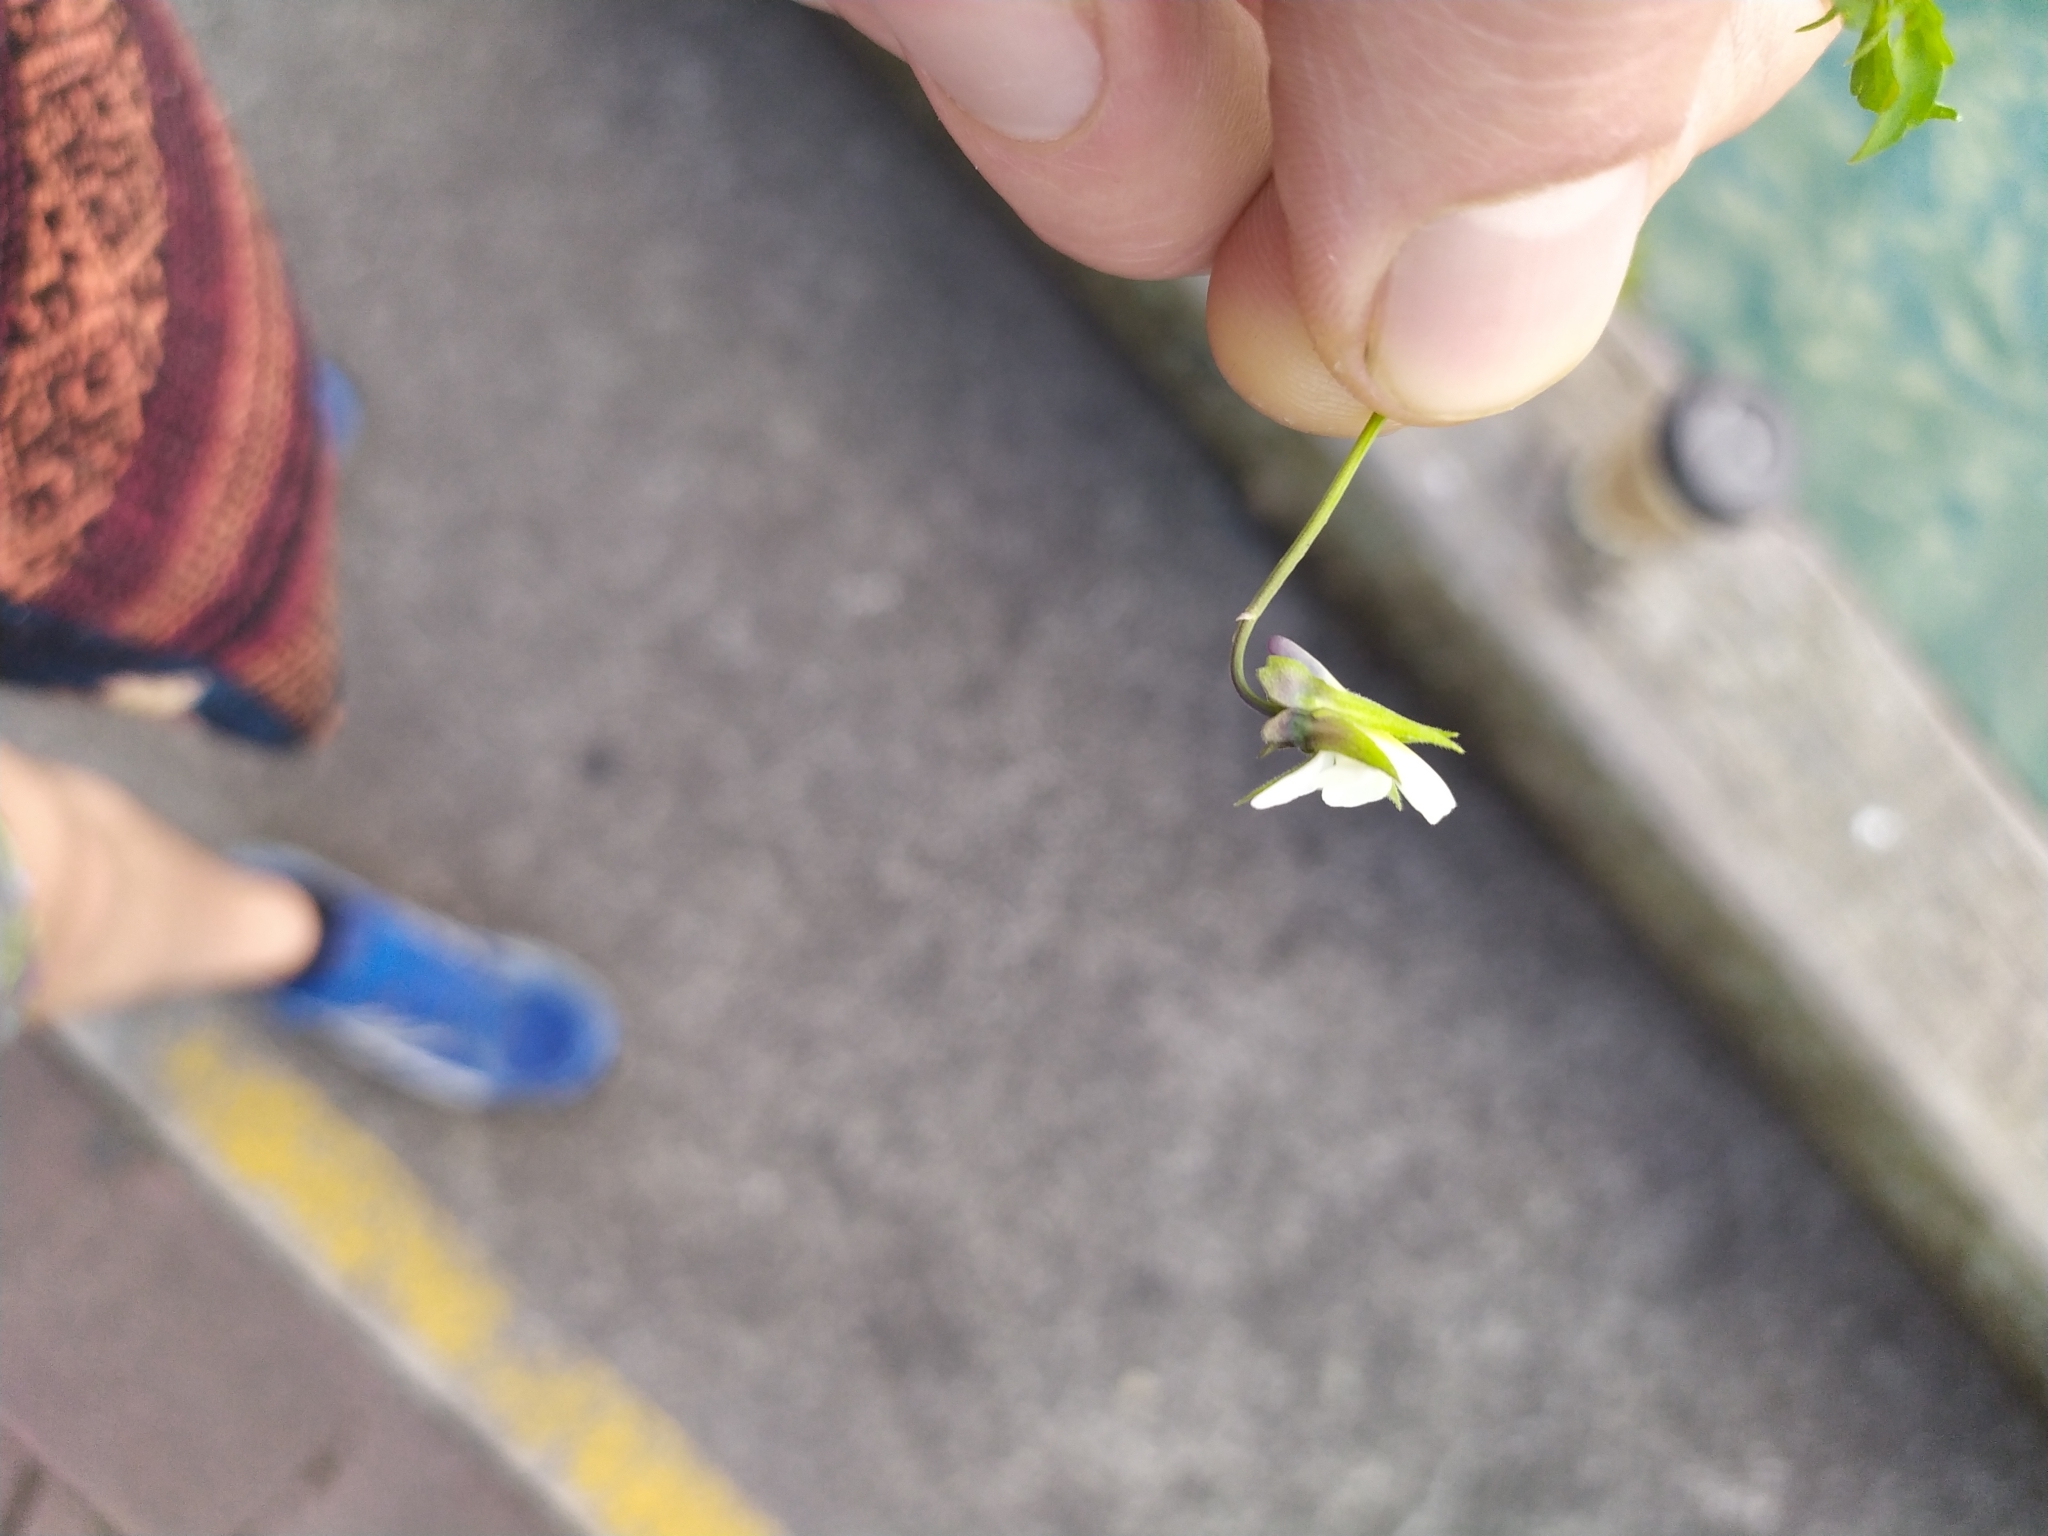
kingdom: Animalia
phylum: Mollusca
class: Gastropoda
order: Stylommatophora
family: Cochlicopidae
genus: Cochlicopa
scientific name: Cochlicopa lubrica
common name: Glossy pillar snail
